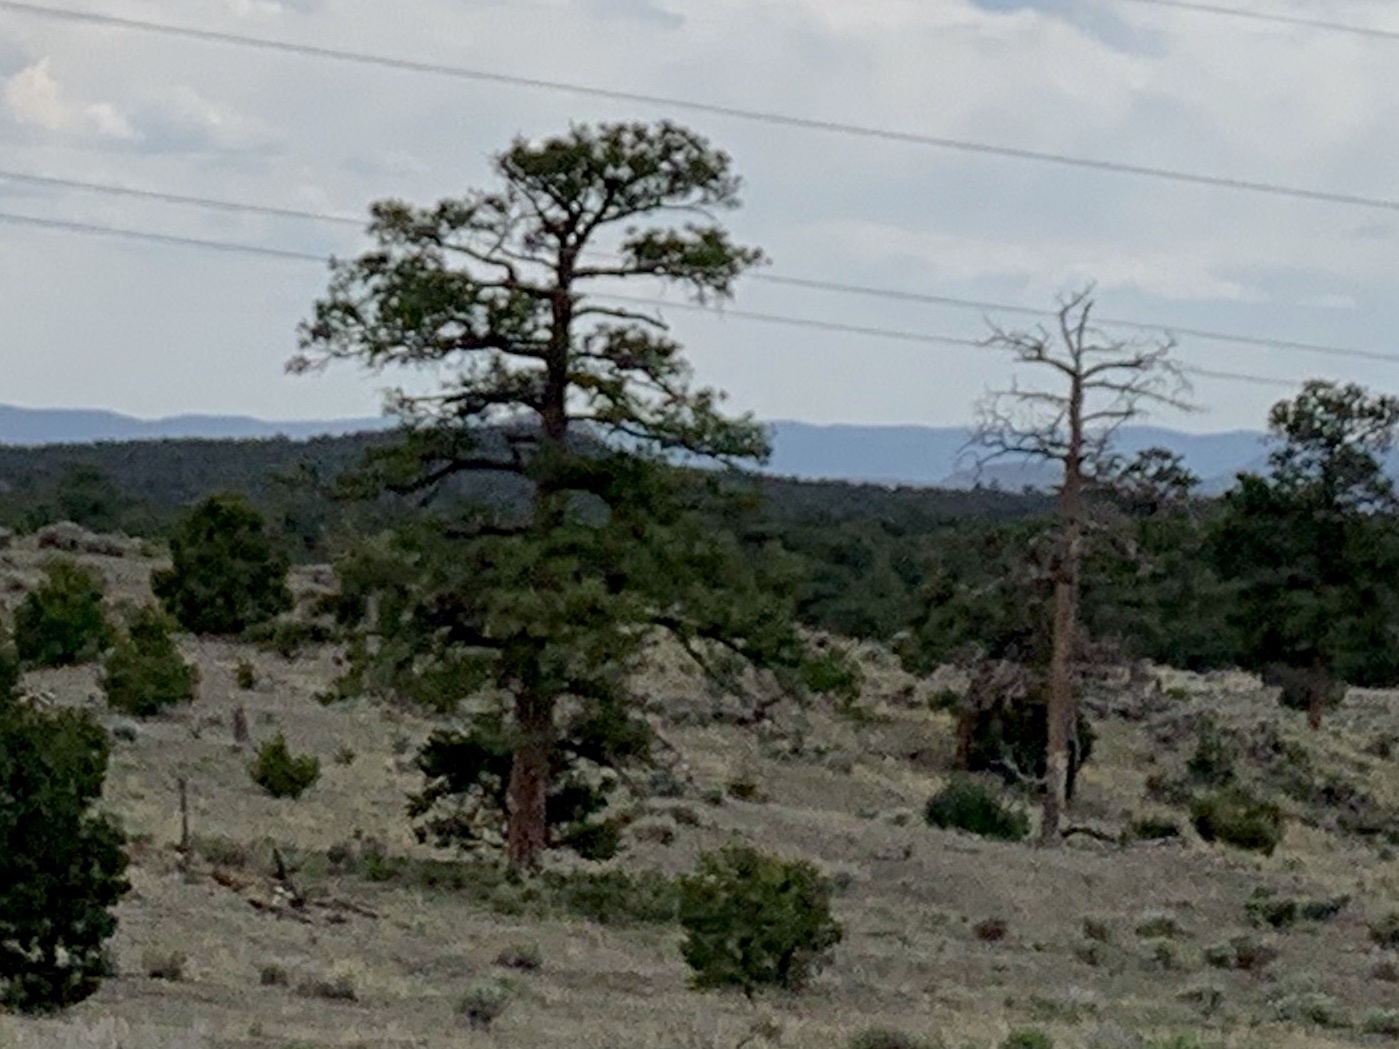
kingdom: Plantae
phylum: Tracheophyta
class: Pinopsida
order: Pinales
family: Pinaceae
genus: Pinus
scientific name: Pinus ponderosa
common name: Western yellow-pine
